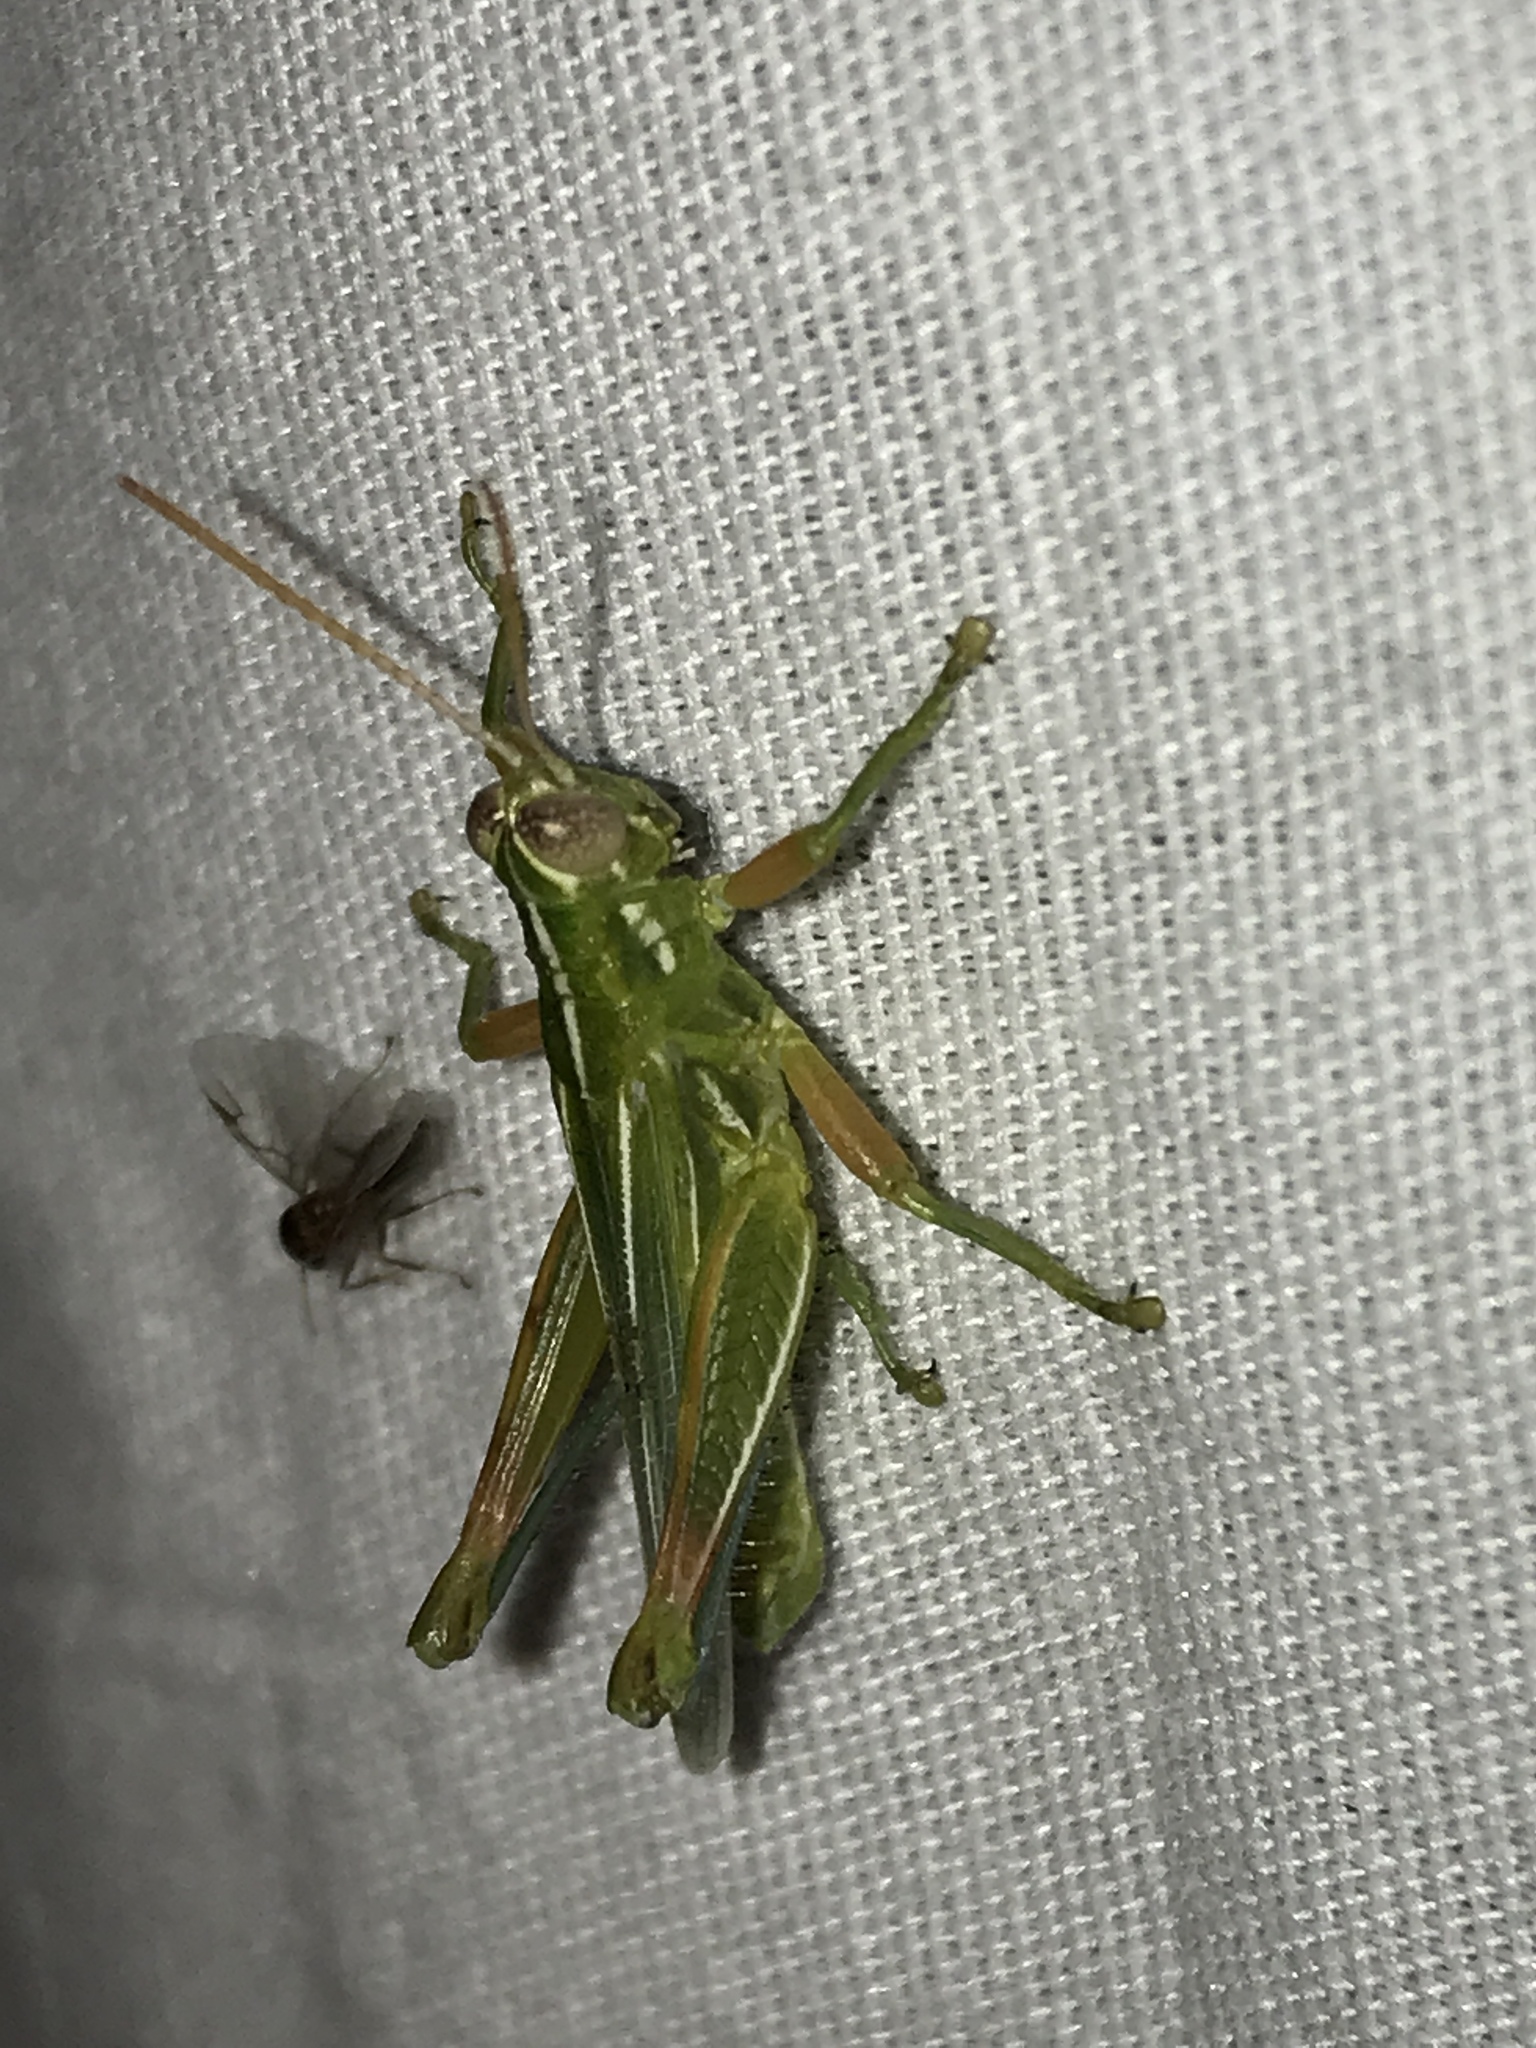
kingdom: Animalia
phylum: Arthropoda
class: Insecta
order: Orthoptera
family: Acrididae
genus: Hesperotettix
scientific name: Hesperotettix viridis
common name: Meadow purple-striped grasshopper
